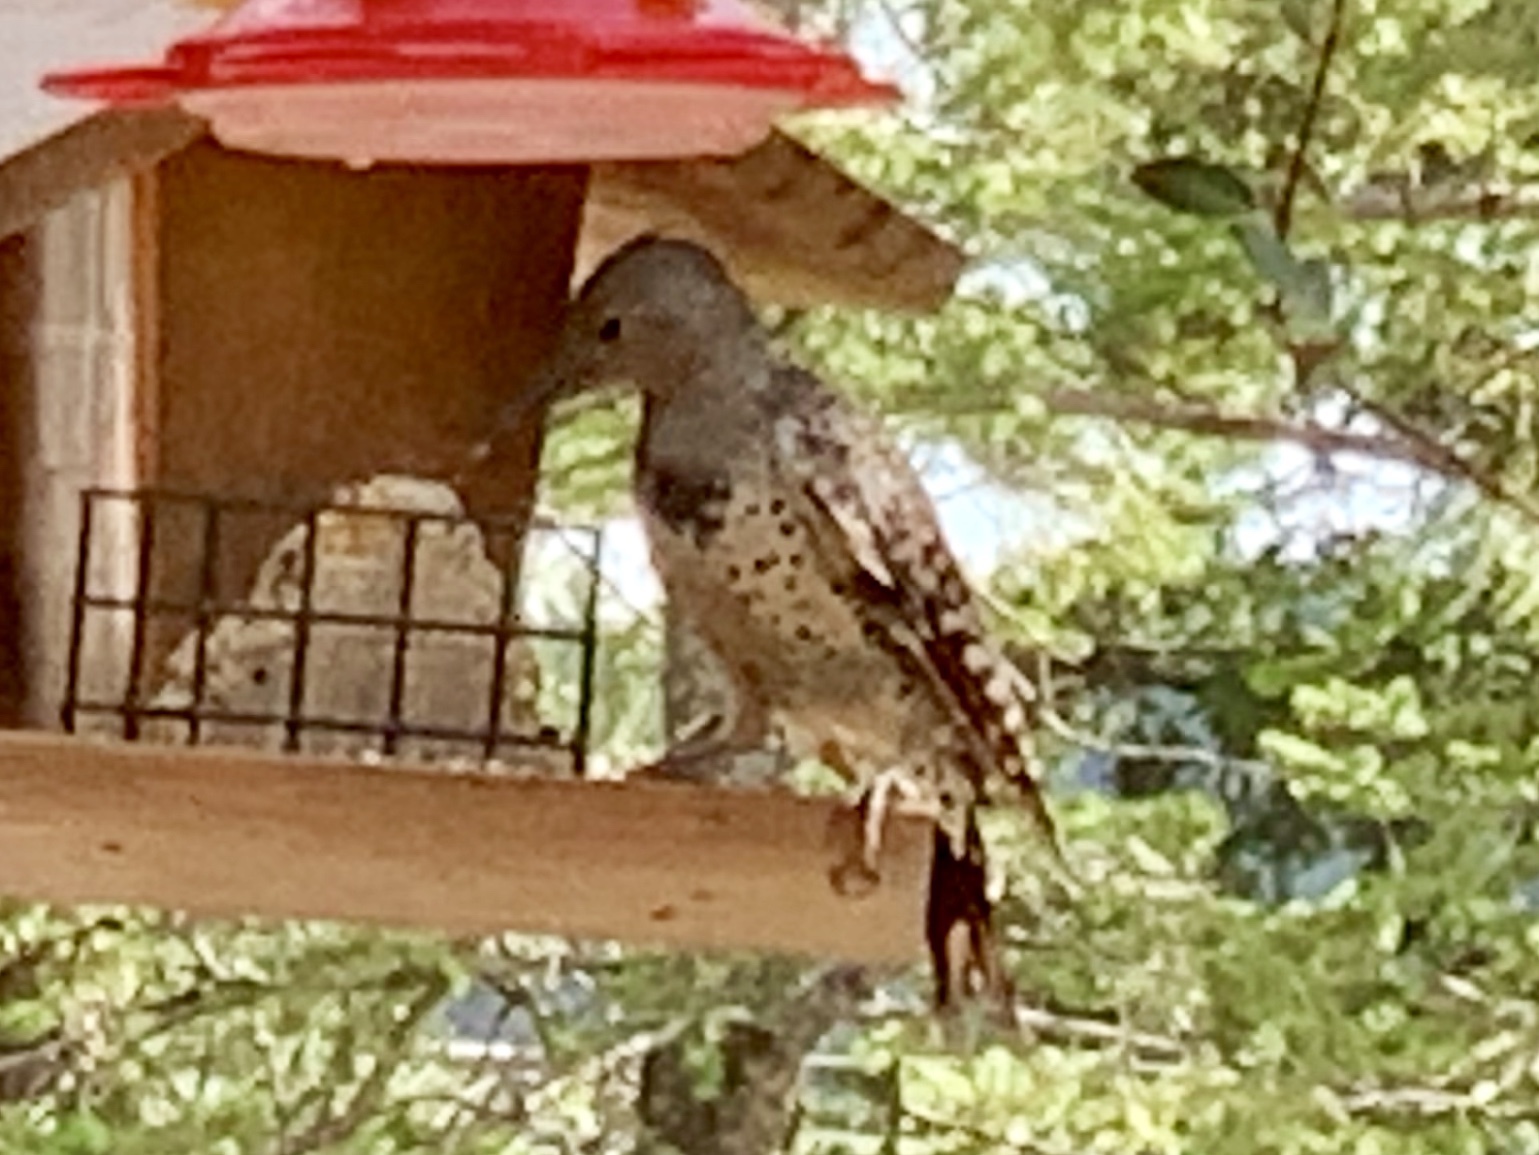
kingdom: Animalia
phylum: Chordata
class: Aves
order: Piciformes
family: Picidae
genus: Colaptes
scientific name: Colaptes auratus
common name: Northern flicker
